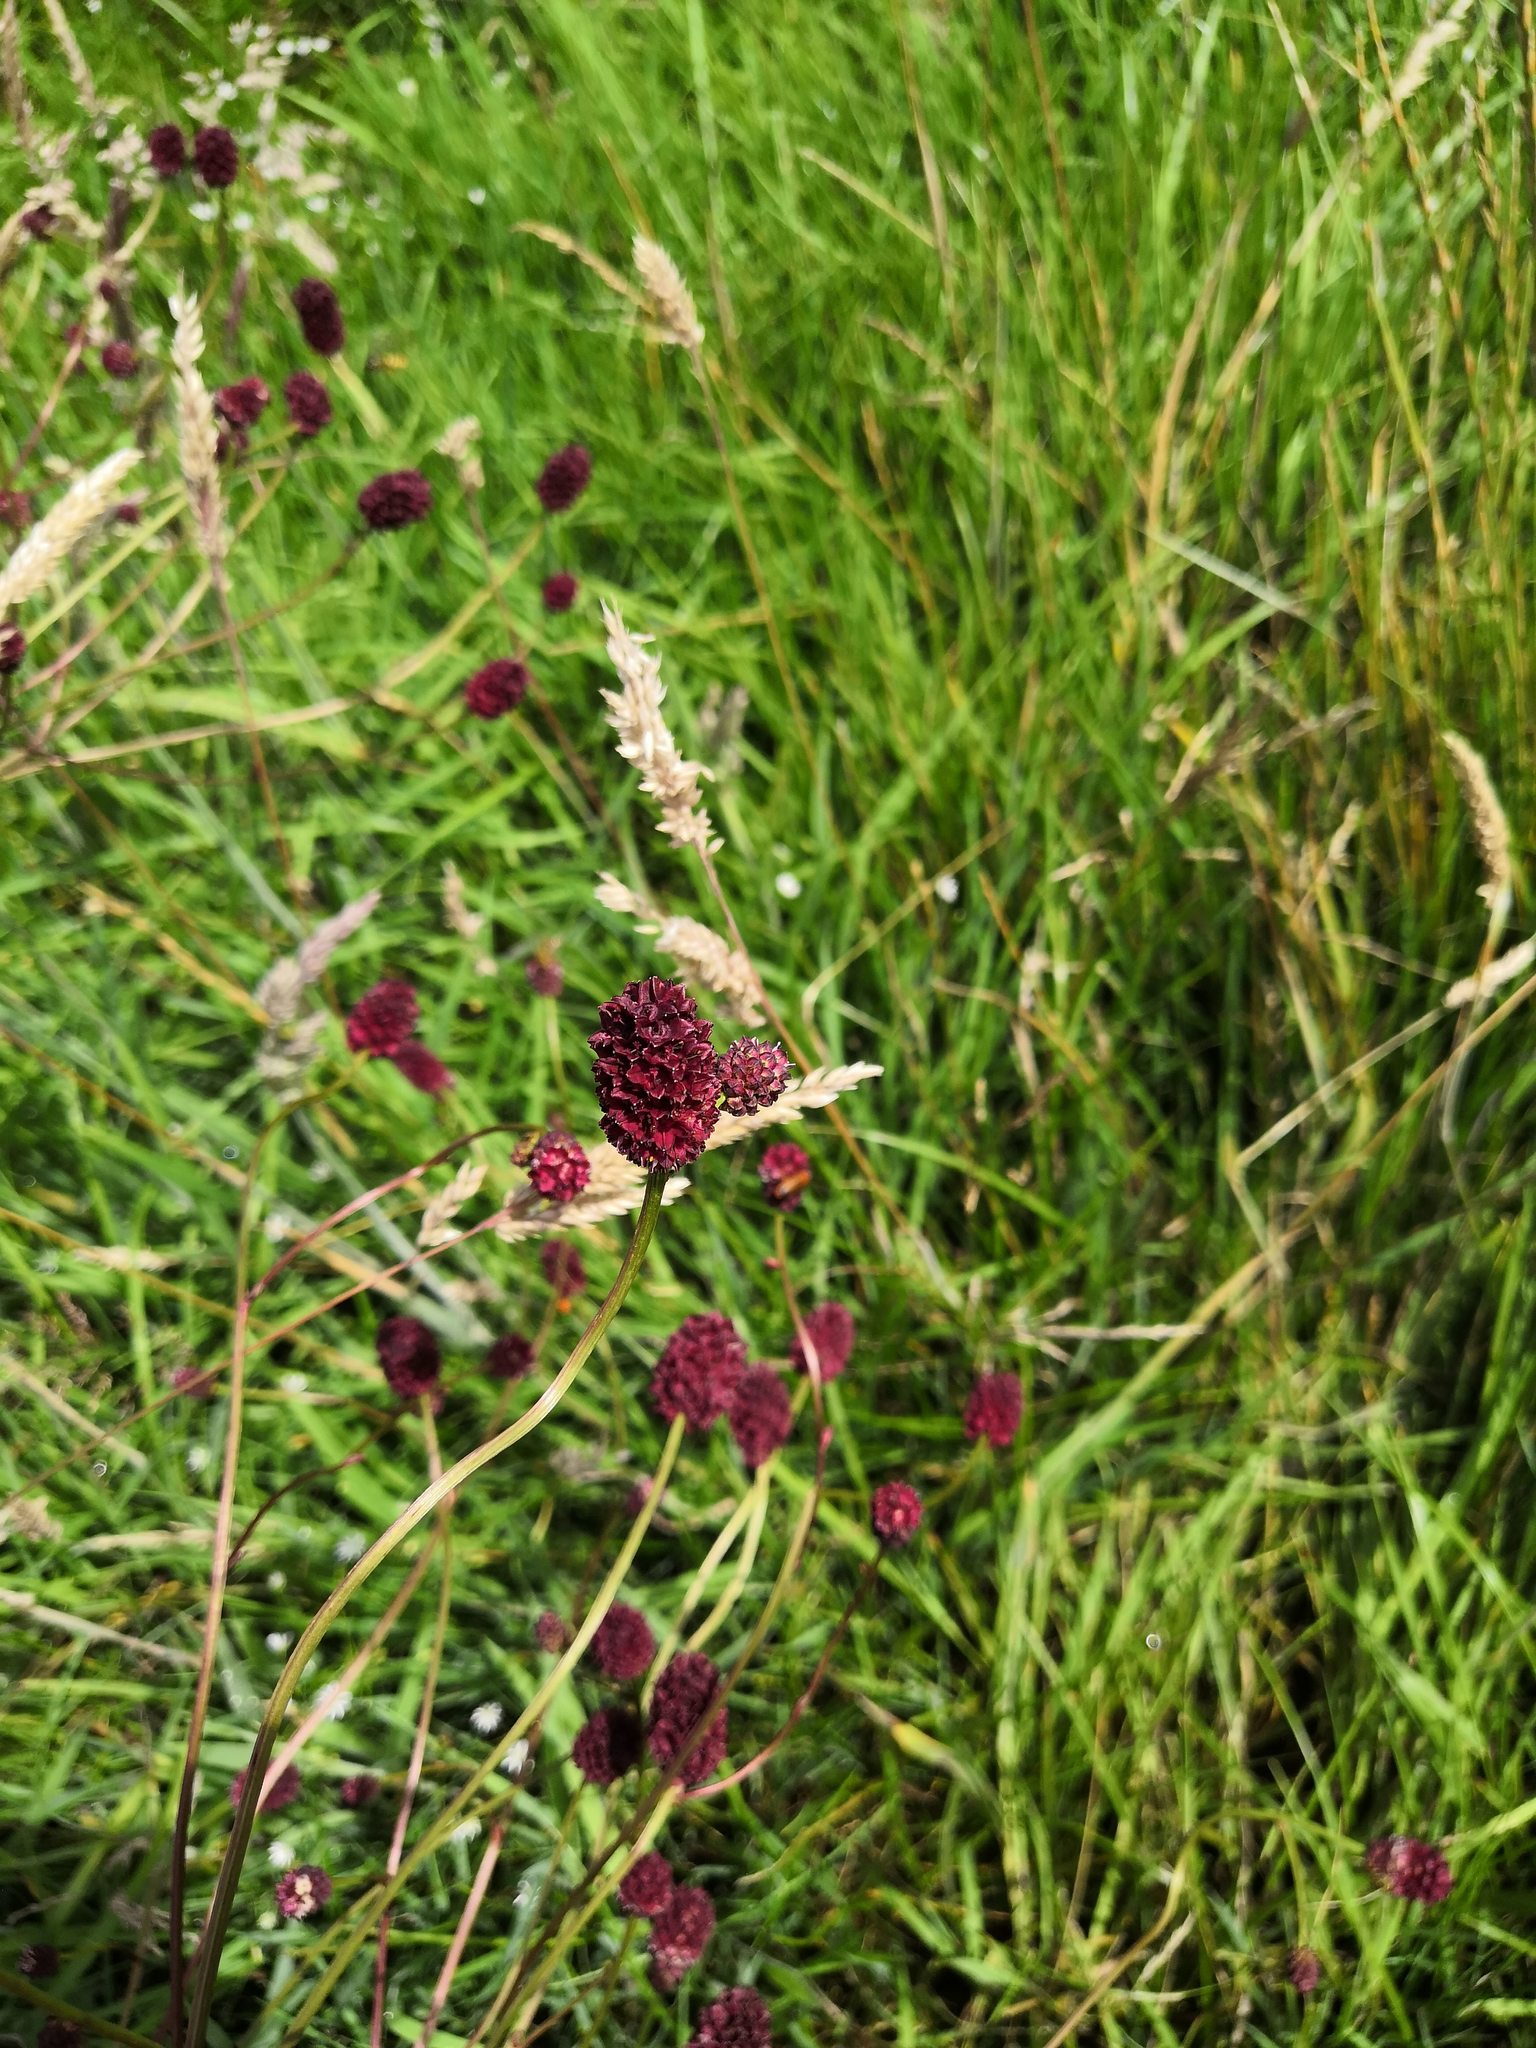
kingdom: Plantae
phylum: Tracheophyta
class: Magnoliopsida
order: Rosales
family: Rosaceae
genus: Sanguisorba
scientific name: Sanguisorba officinalis
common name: Great burnet
